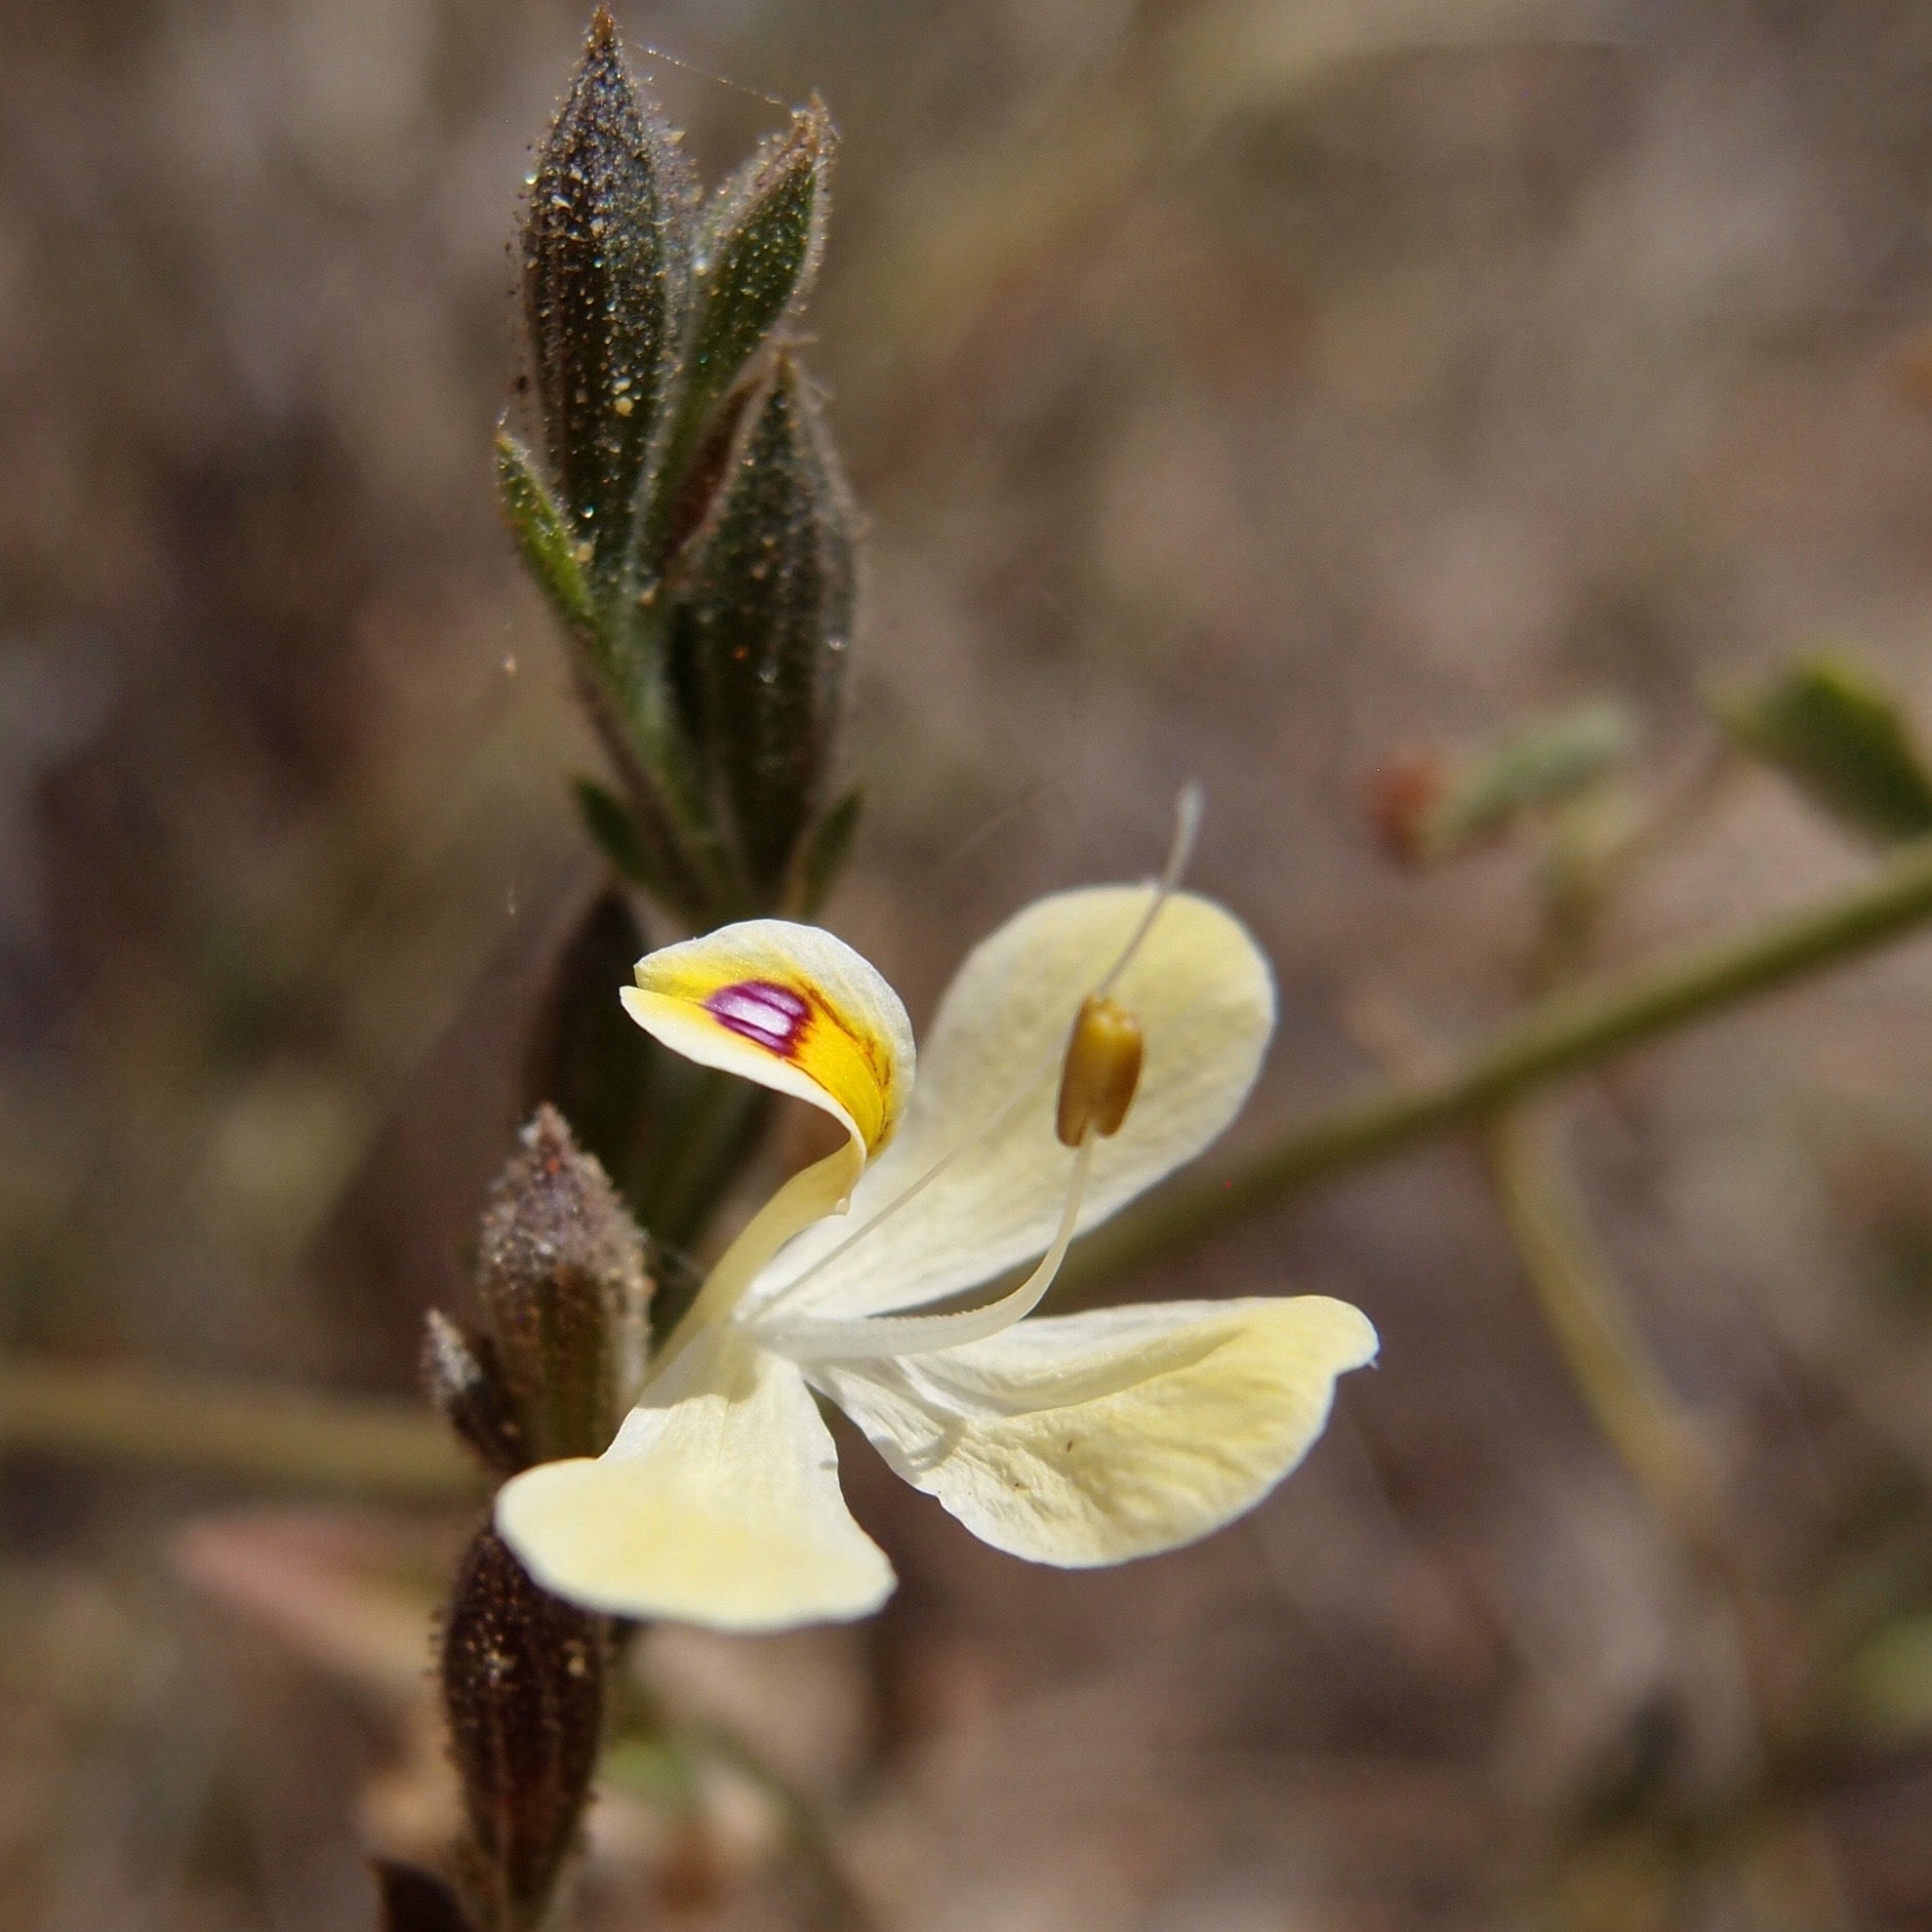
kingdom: Plantae
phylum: Tracheophyta
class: Magnoliopsida
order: Lamiales
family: Acanthaceae
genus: Henrya
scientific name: Henrya insularis
